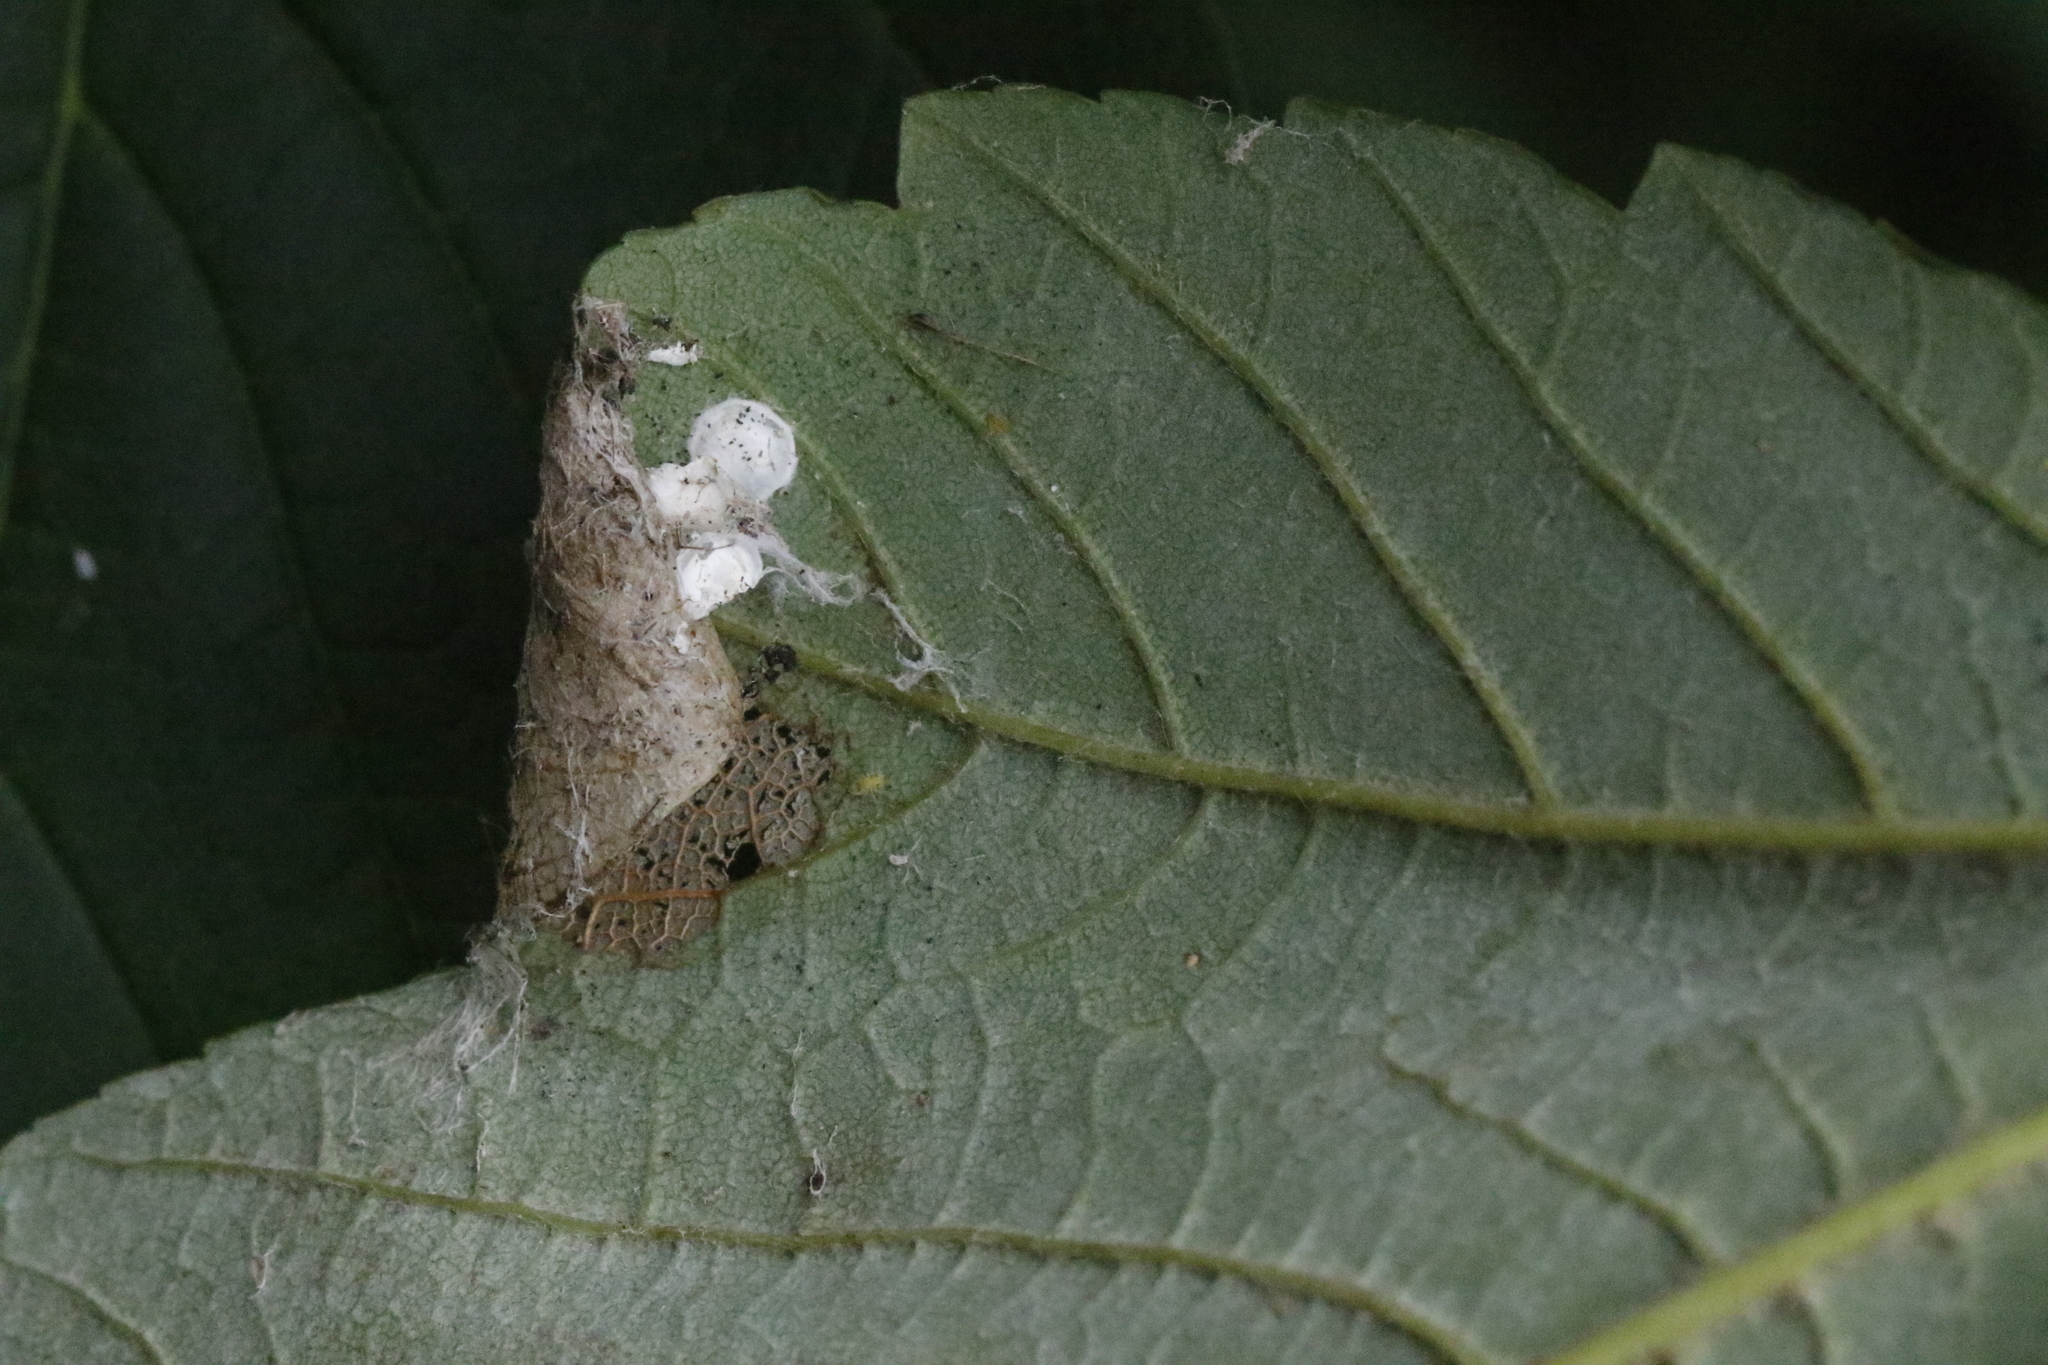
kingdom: Animalia
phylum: Arthropoda
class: Insecta
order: Lepidoptera
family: Gracillariidae
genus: Caloptilia
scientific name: Caloptilia rufipennella
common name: Small red slender
